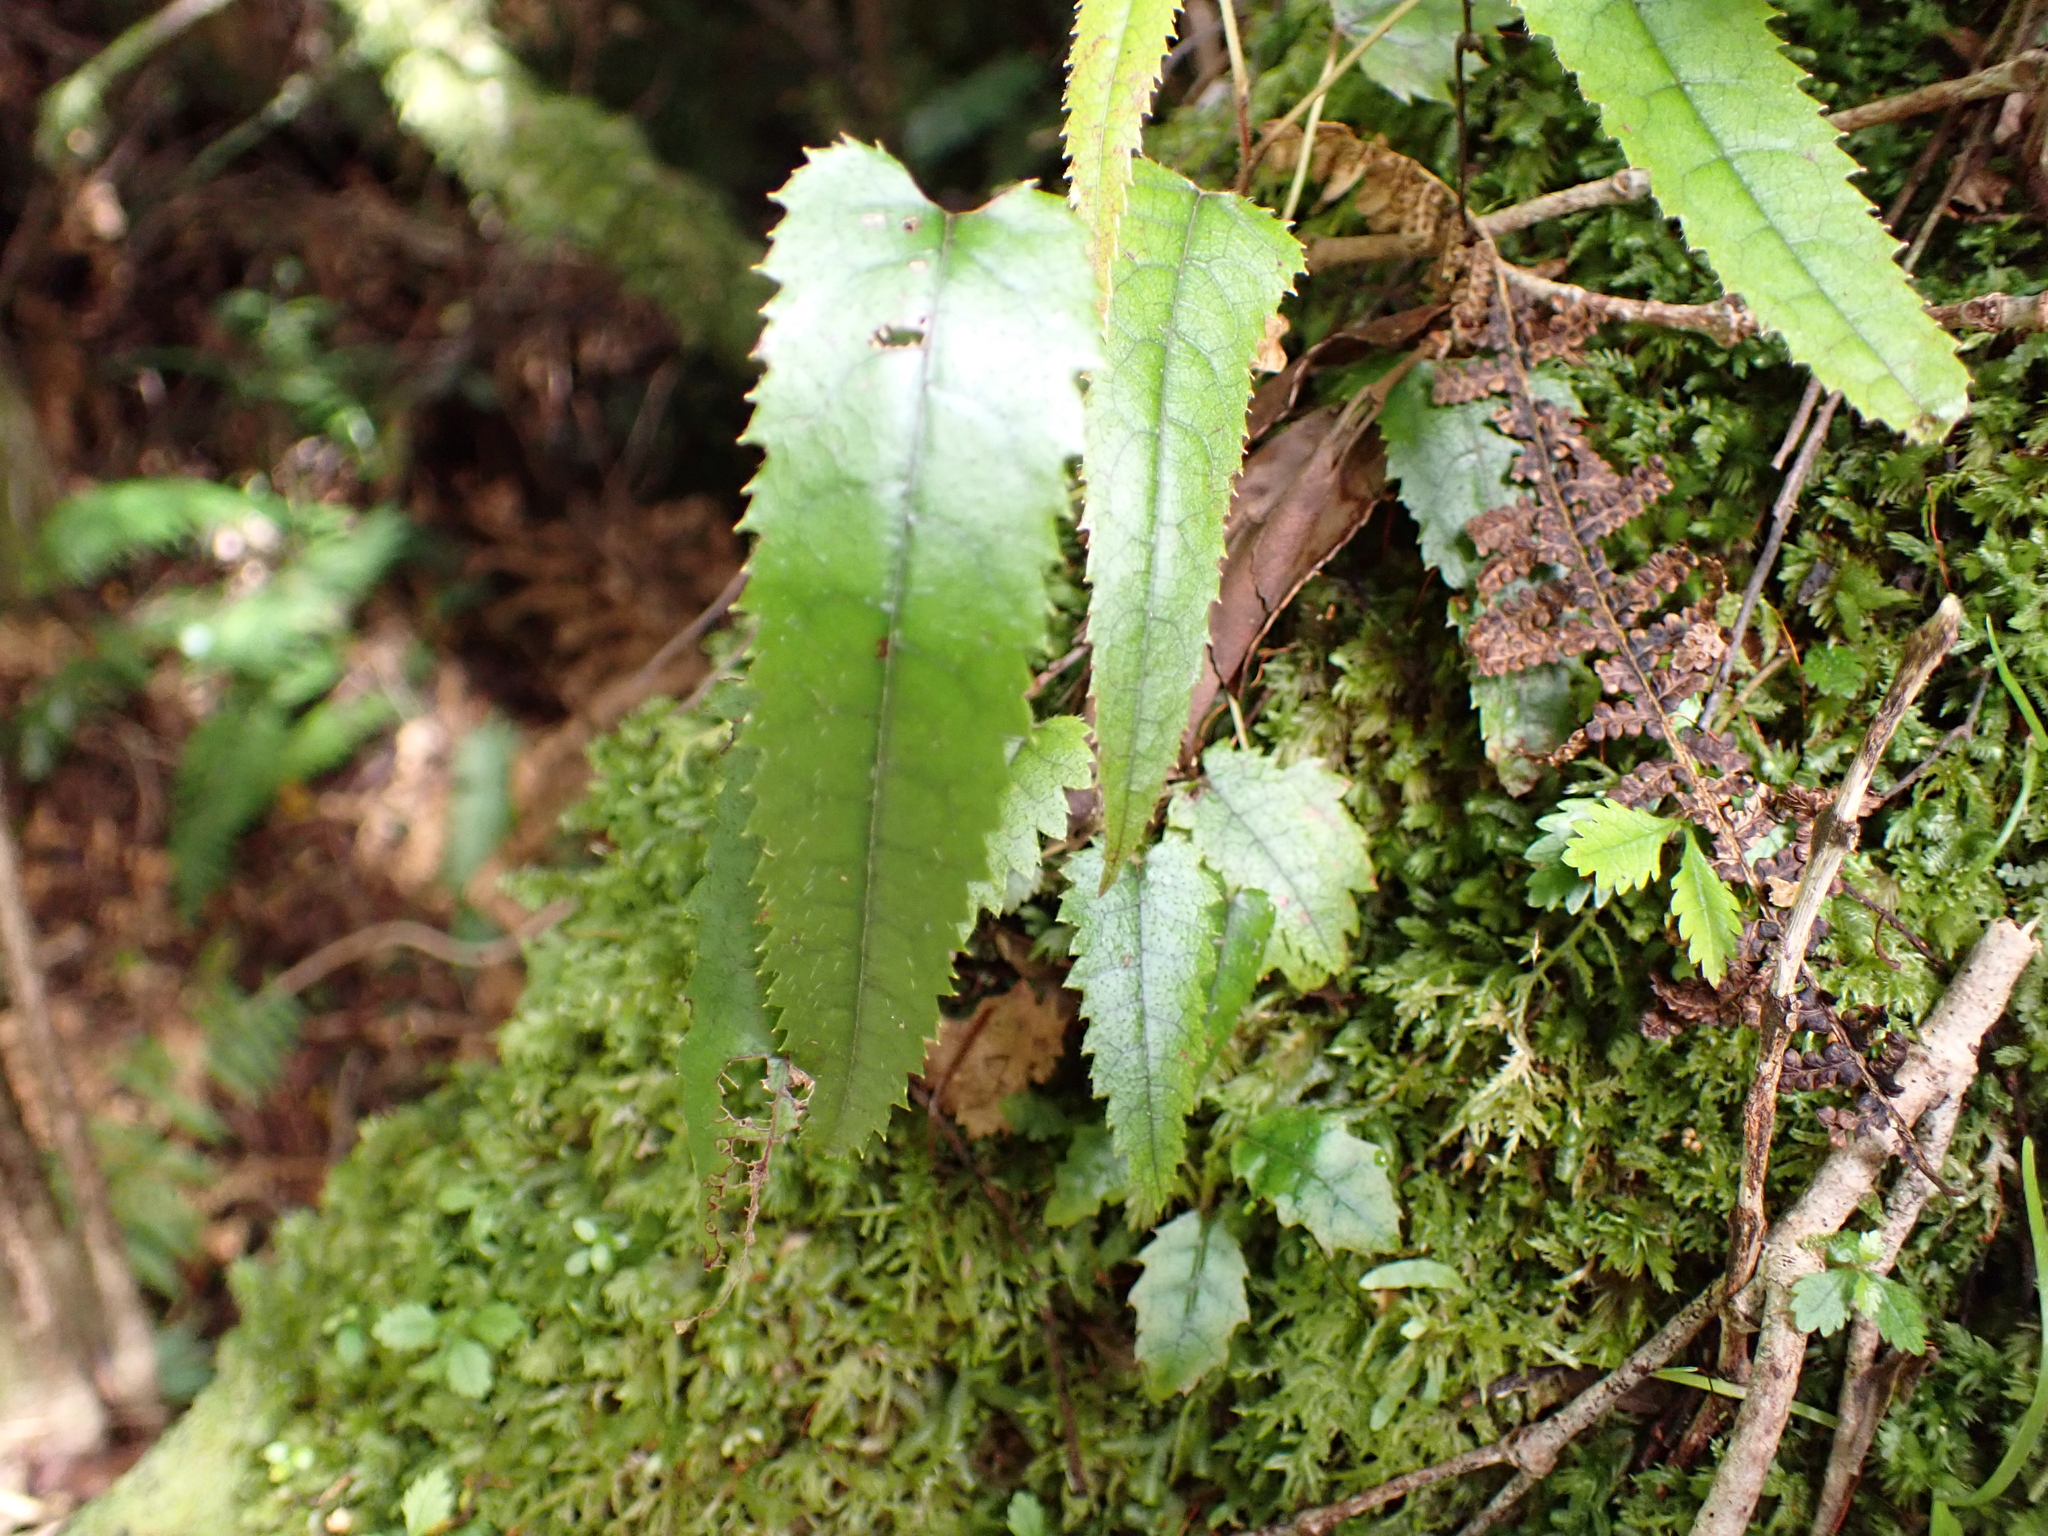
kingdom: Plantae
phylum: Tracheophyta
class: Magnoliopsida
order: Rosales
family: Rosaceae
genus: Rubus
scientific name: Rubus cissoides
